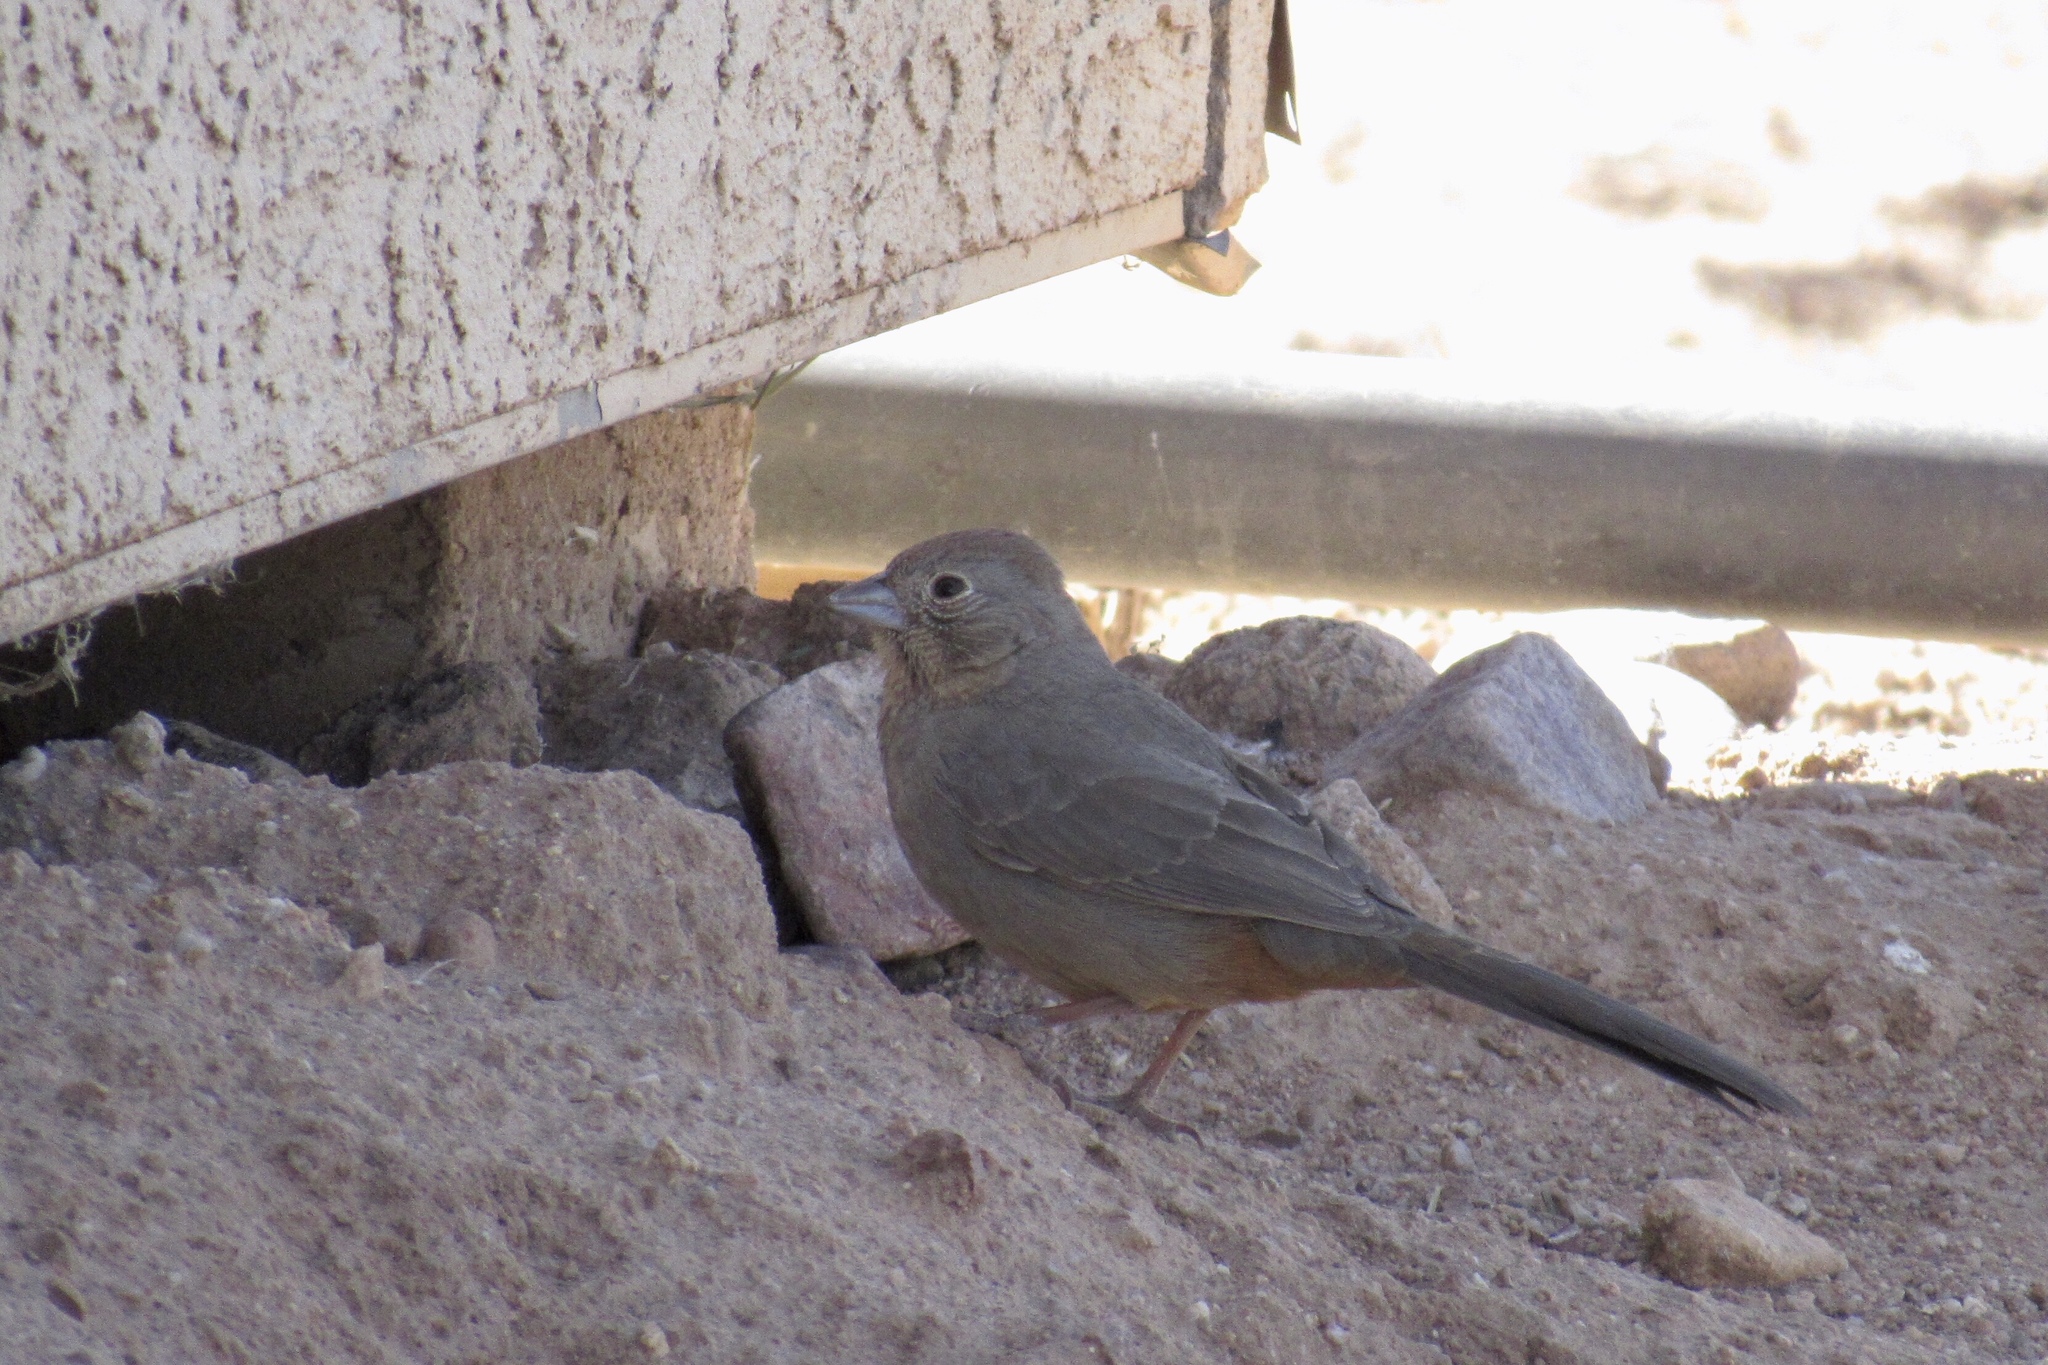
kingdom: Animalia
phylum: Chordata
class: Aves
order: Passeriformes
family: Passerellidae
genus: Melozone
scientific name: Melozone fusca
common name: Canyon towhee
